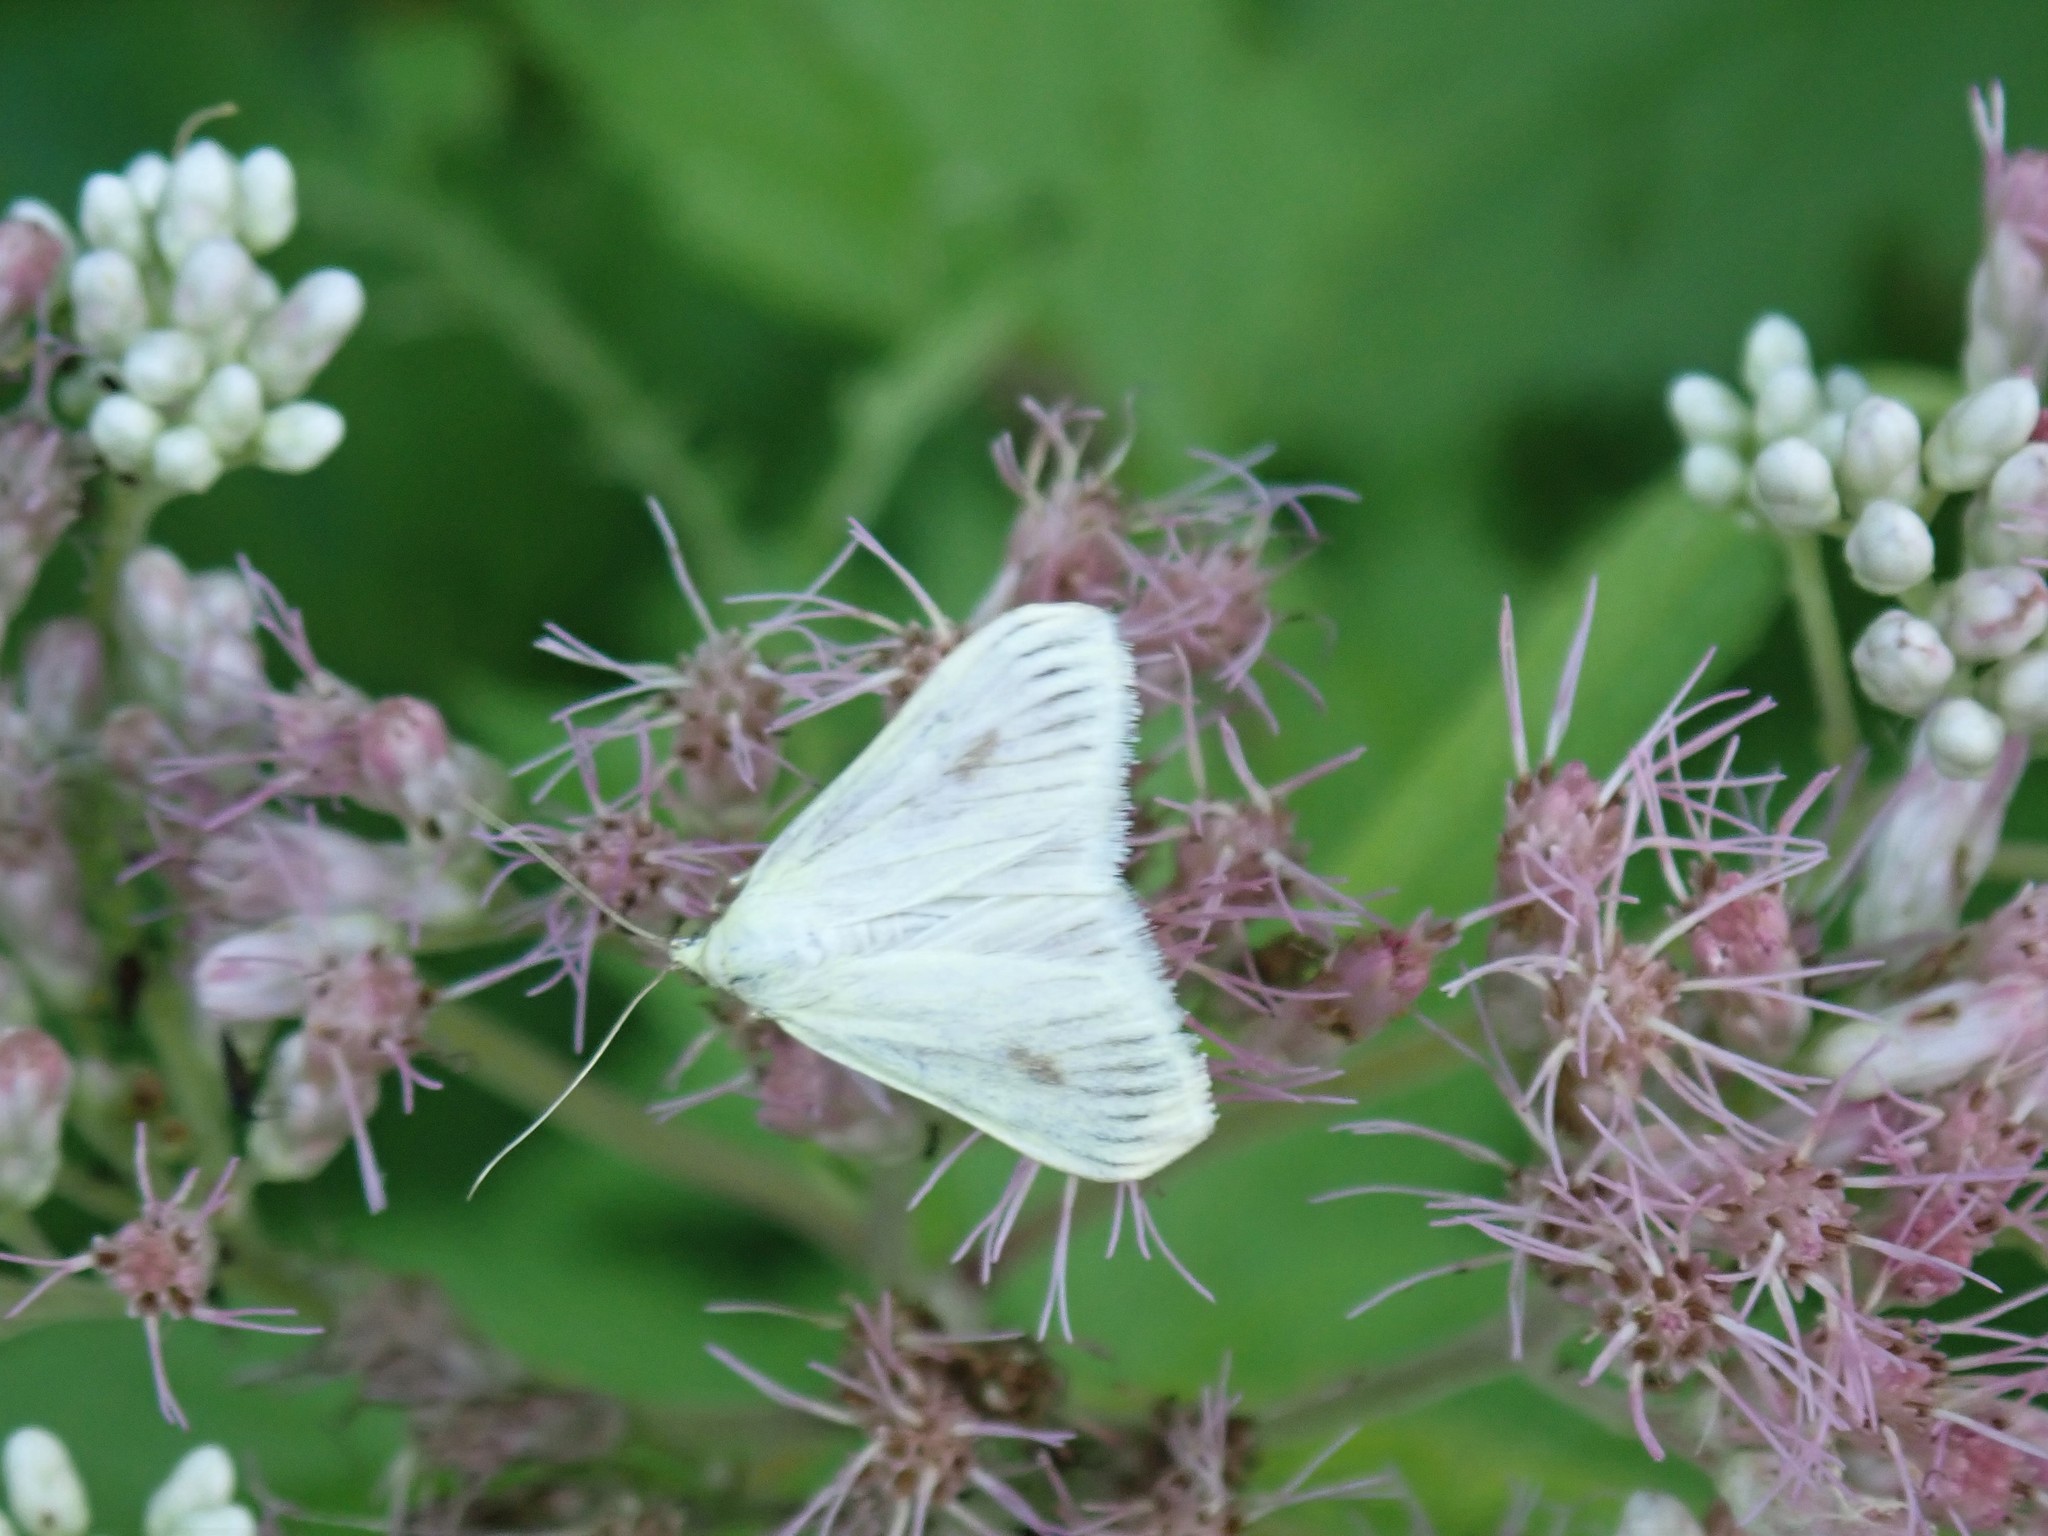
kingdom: Animalia
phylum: Arthropoda
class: Insecta
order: Lepidoptera
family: Crambidae
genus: Sitochroa
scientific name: Sitochroa palealis
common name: Greenish-yellow sitochroa moth
